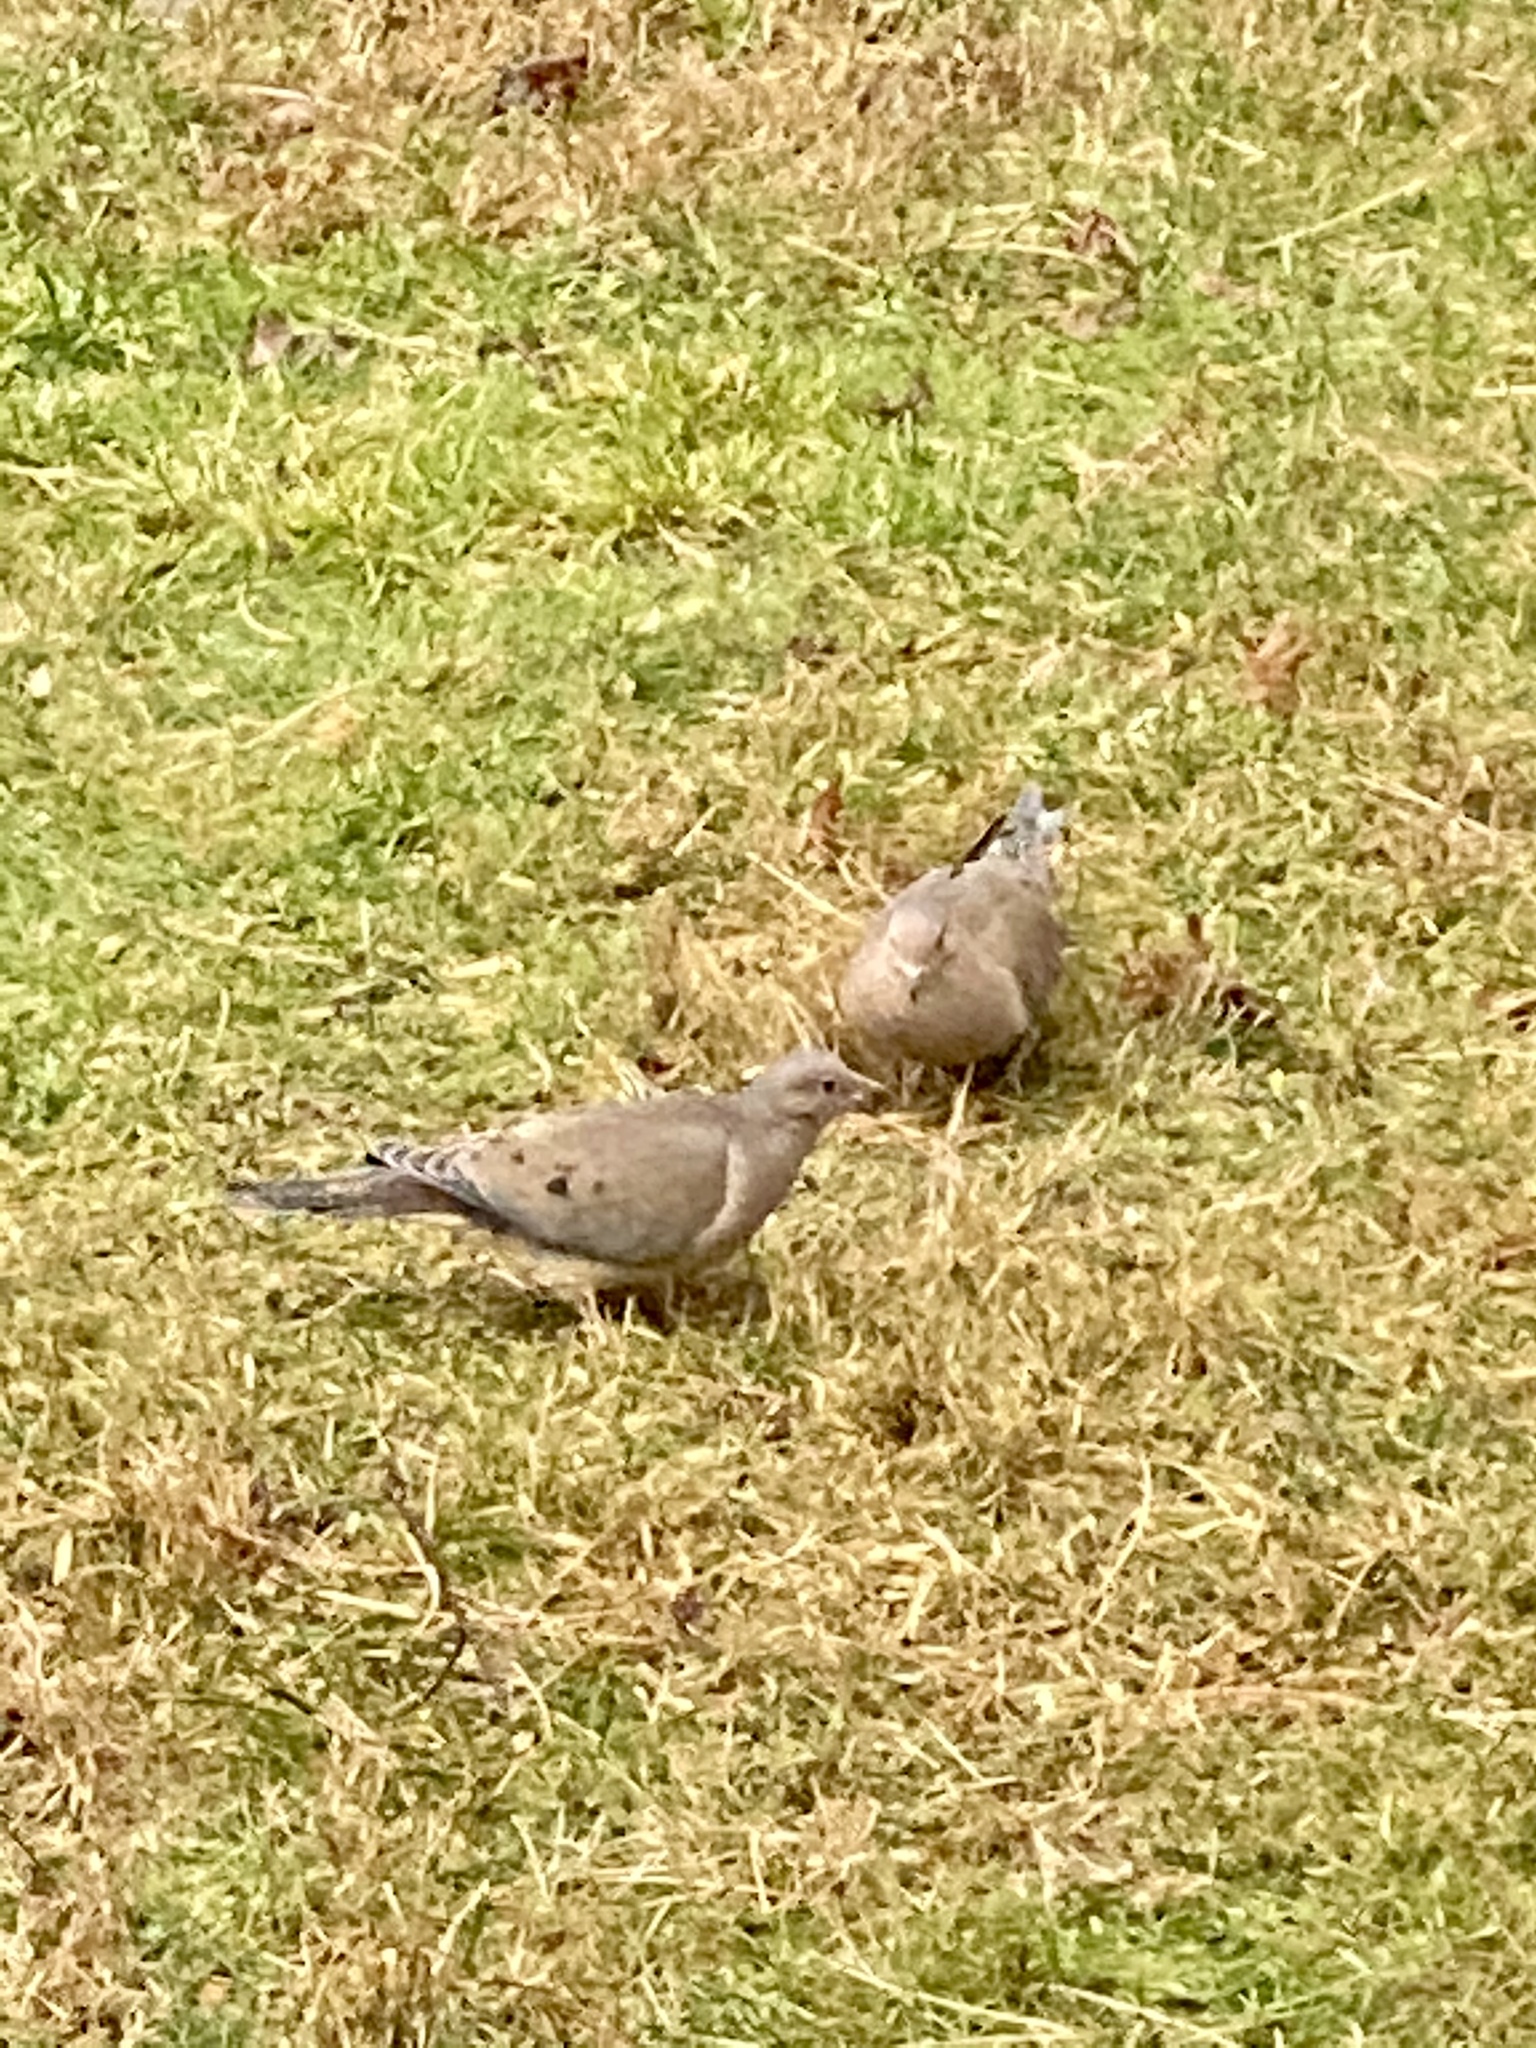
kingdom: Animalia
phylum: Chordata
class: Aves
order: Columbiformes
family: Columbidae
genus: Zenaida
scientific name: Zenaida macroura
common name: Mourning dove
